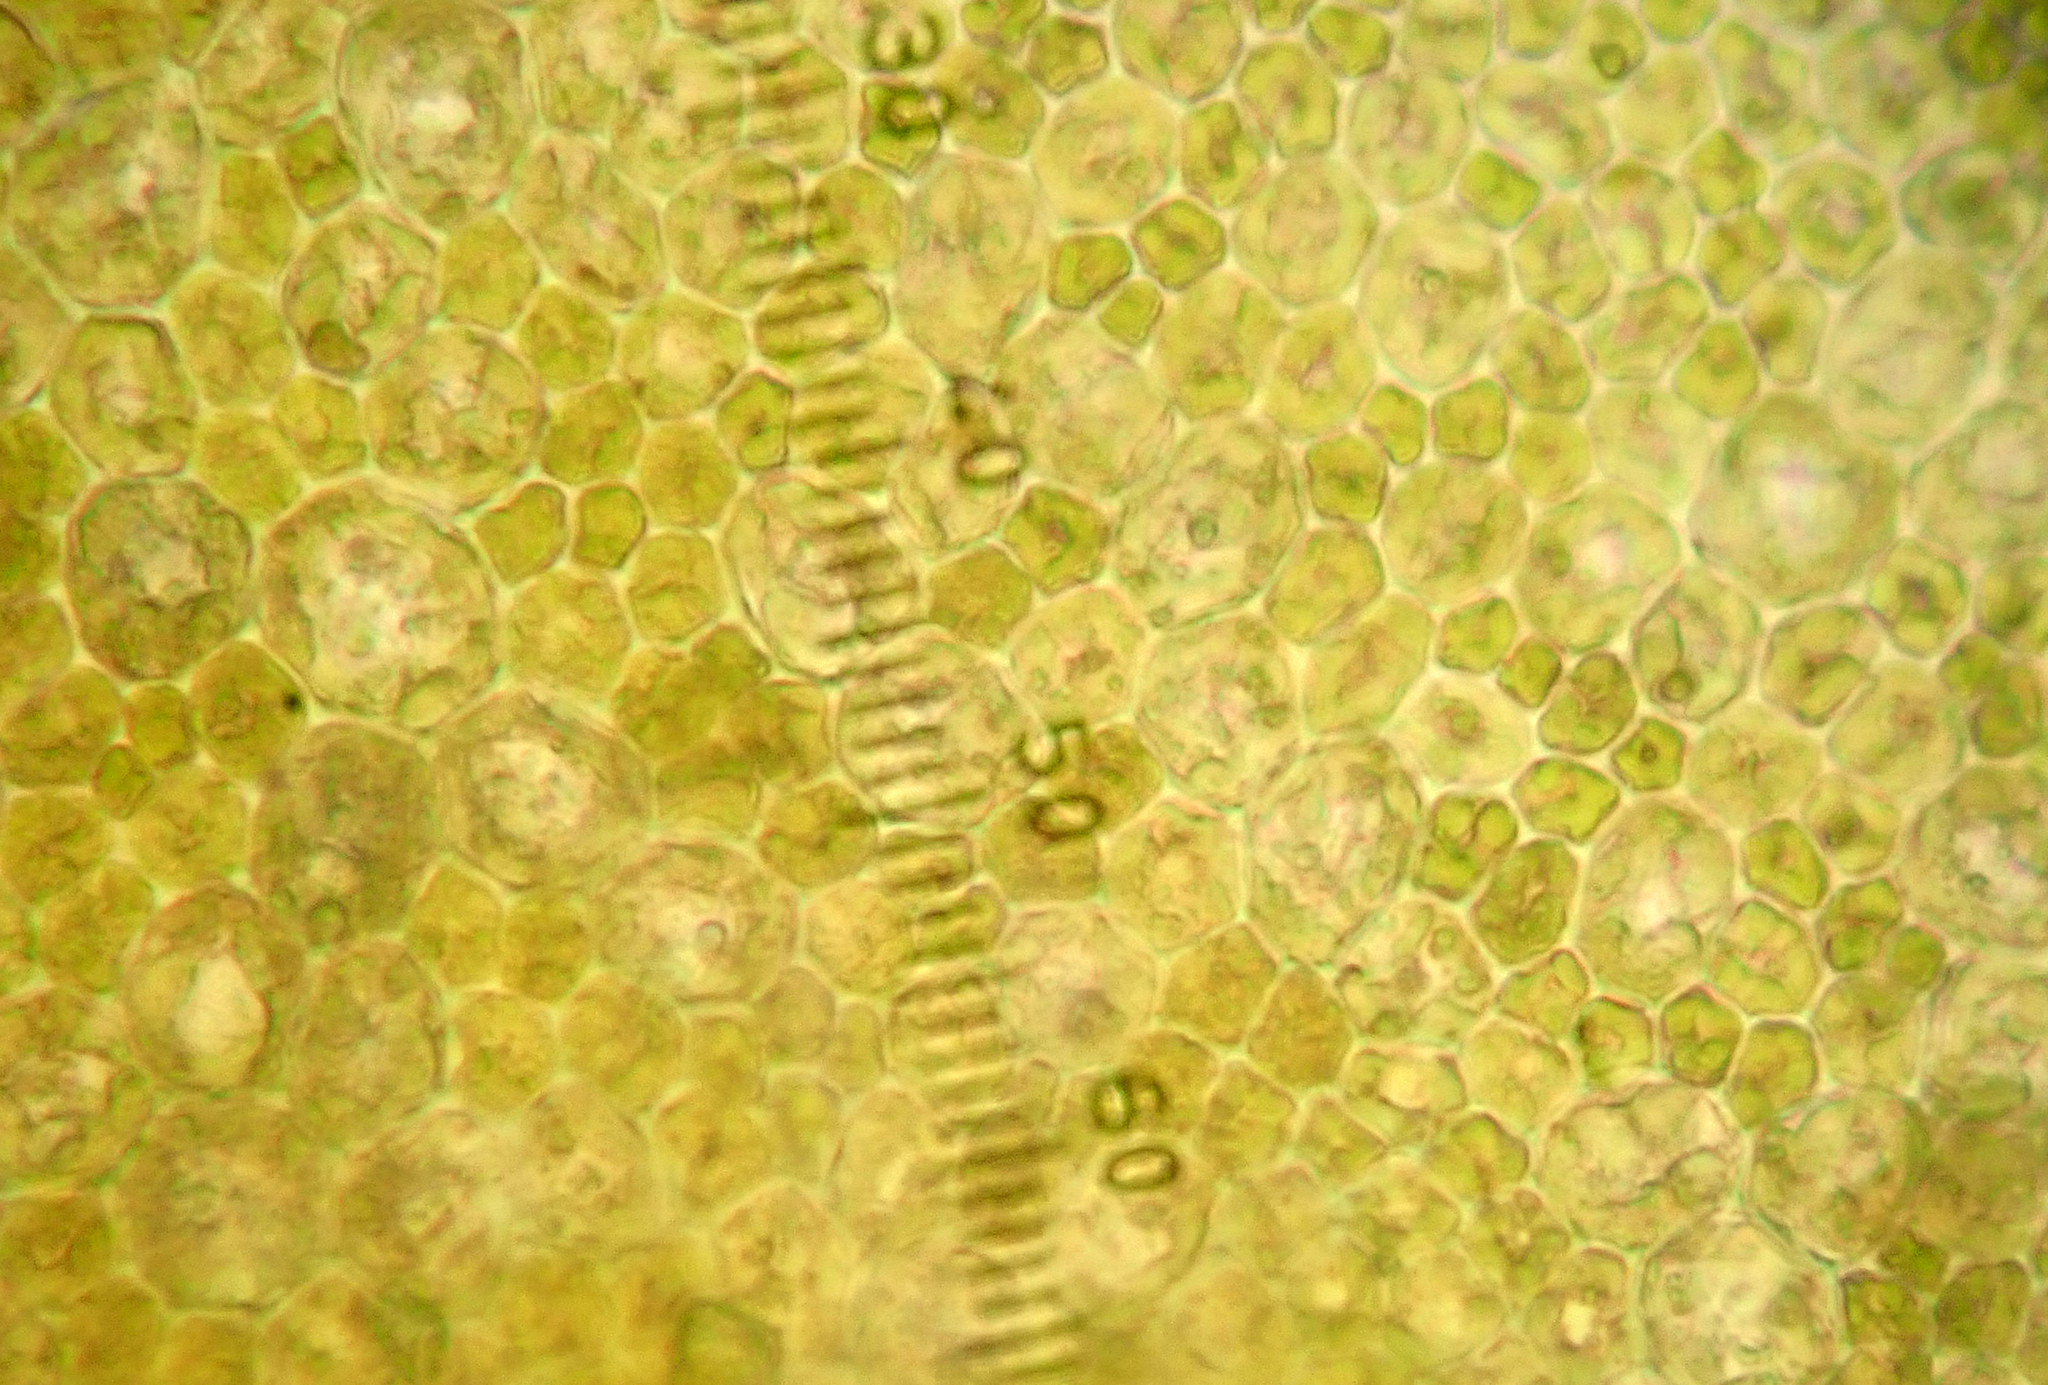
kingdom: Plantae
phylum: Marchantiophyta
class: Jungermanniopsida
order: Porellales
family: Radulaceae
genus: Radula
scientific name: Radula strangulata
